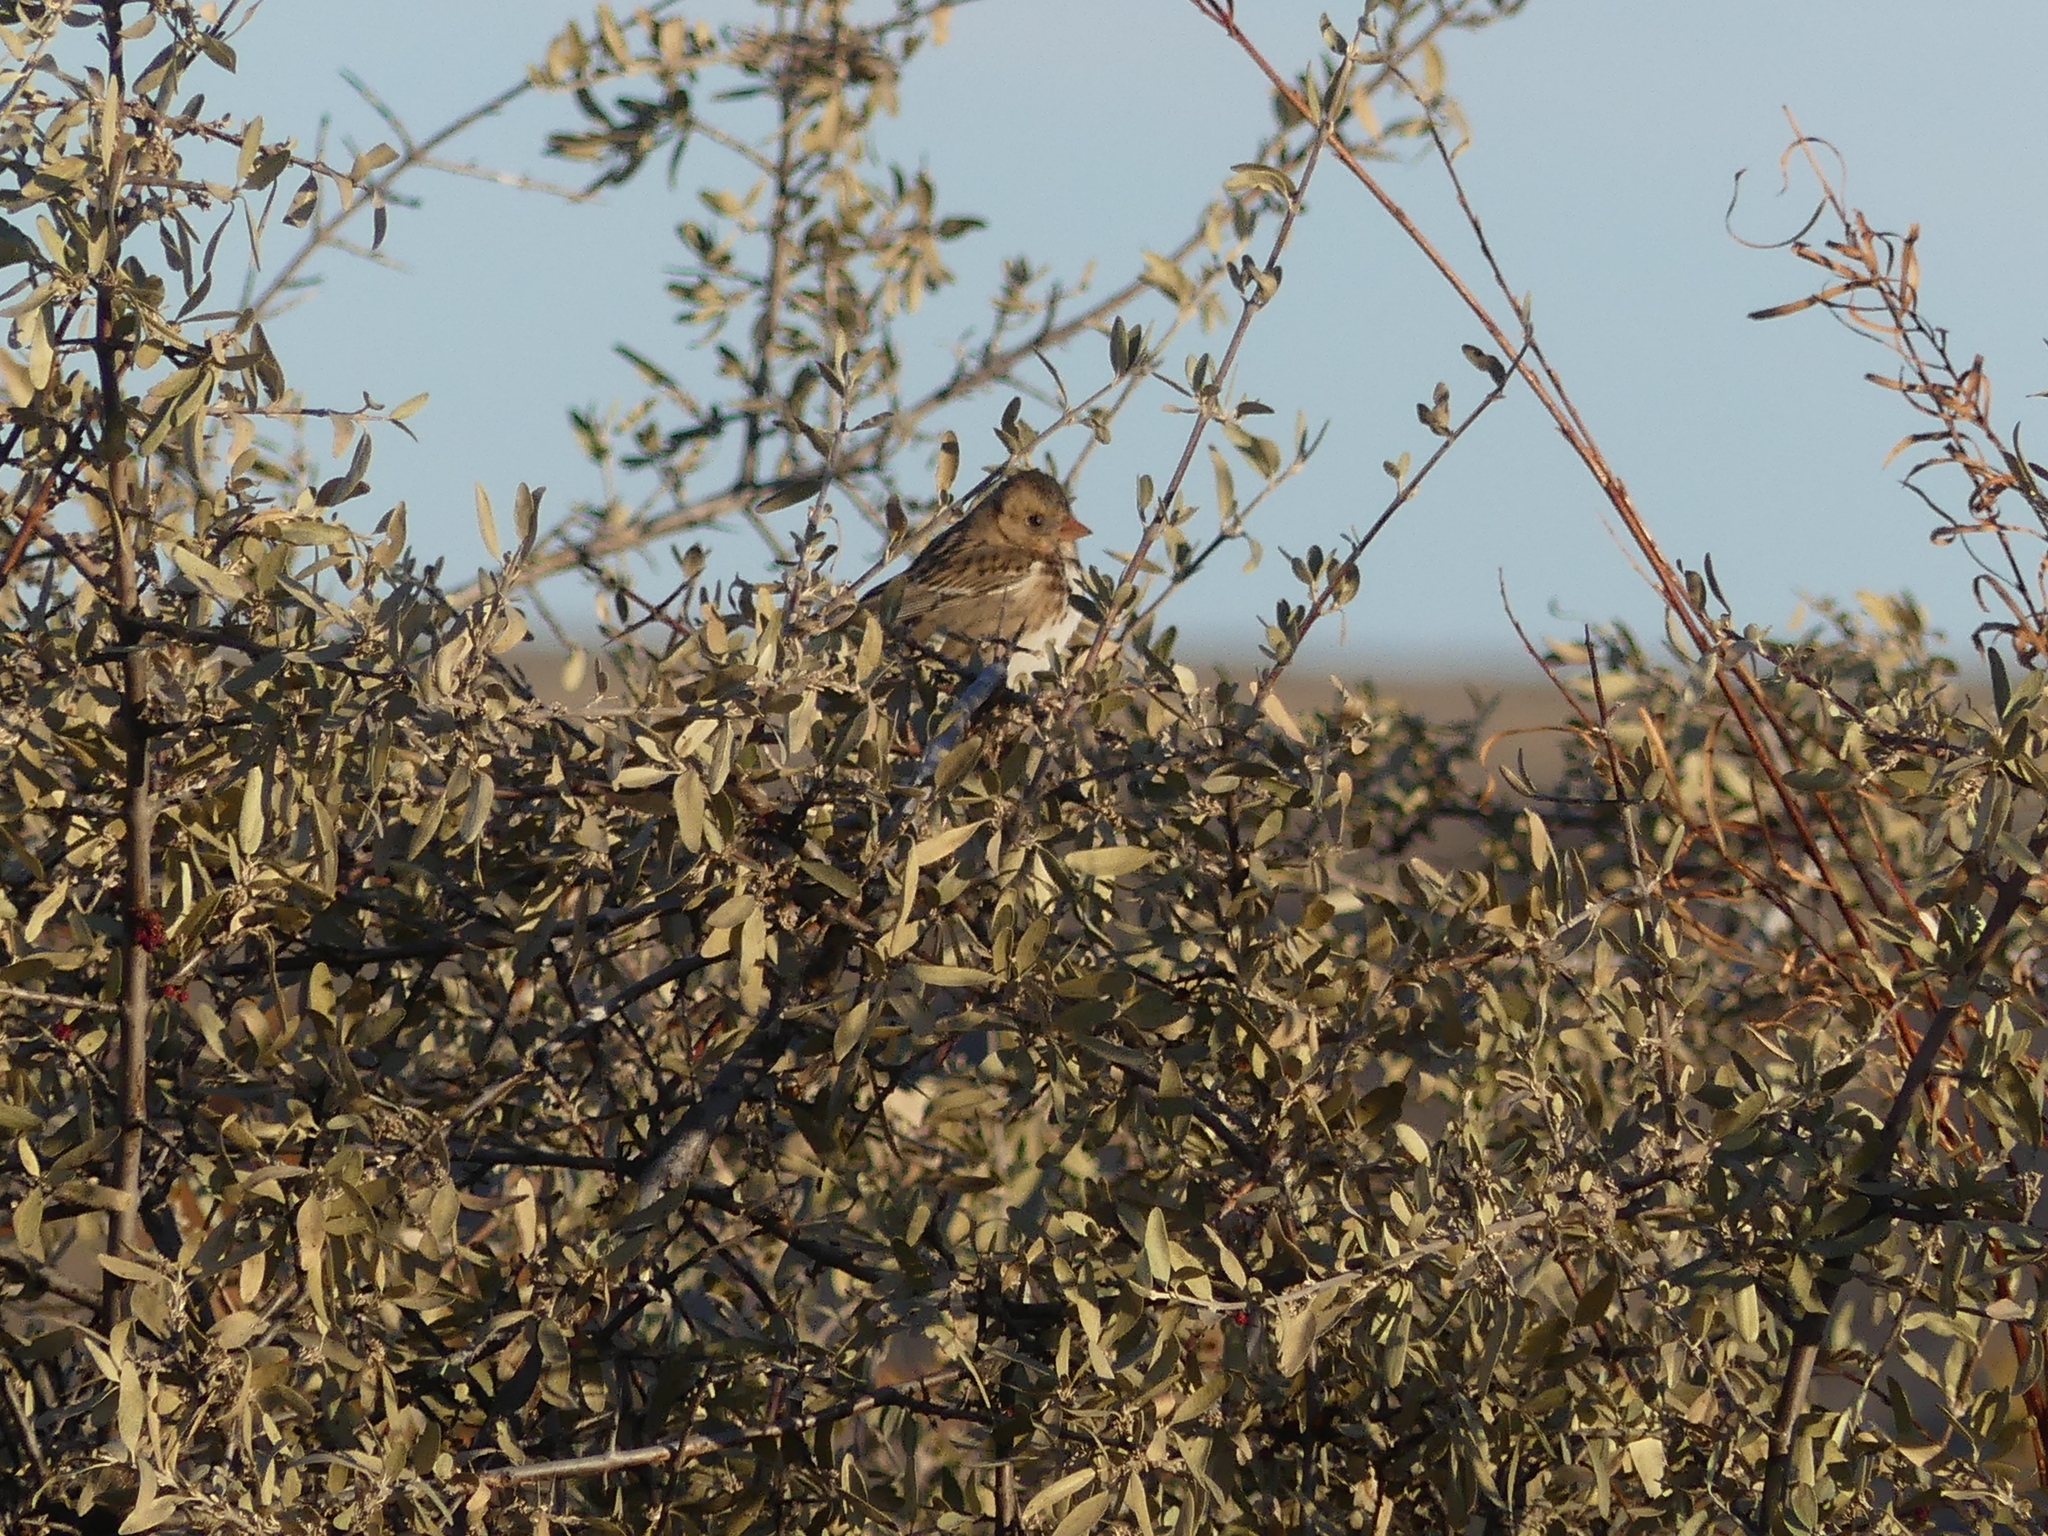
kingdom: Animalia
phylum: Chordata
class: Aves
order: Passeriformes
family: Passerellidae
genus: Zonotrichia
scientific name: Zonotrichia querula
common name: Harris's sparrow
